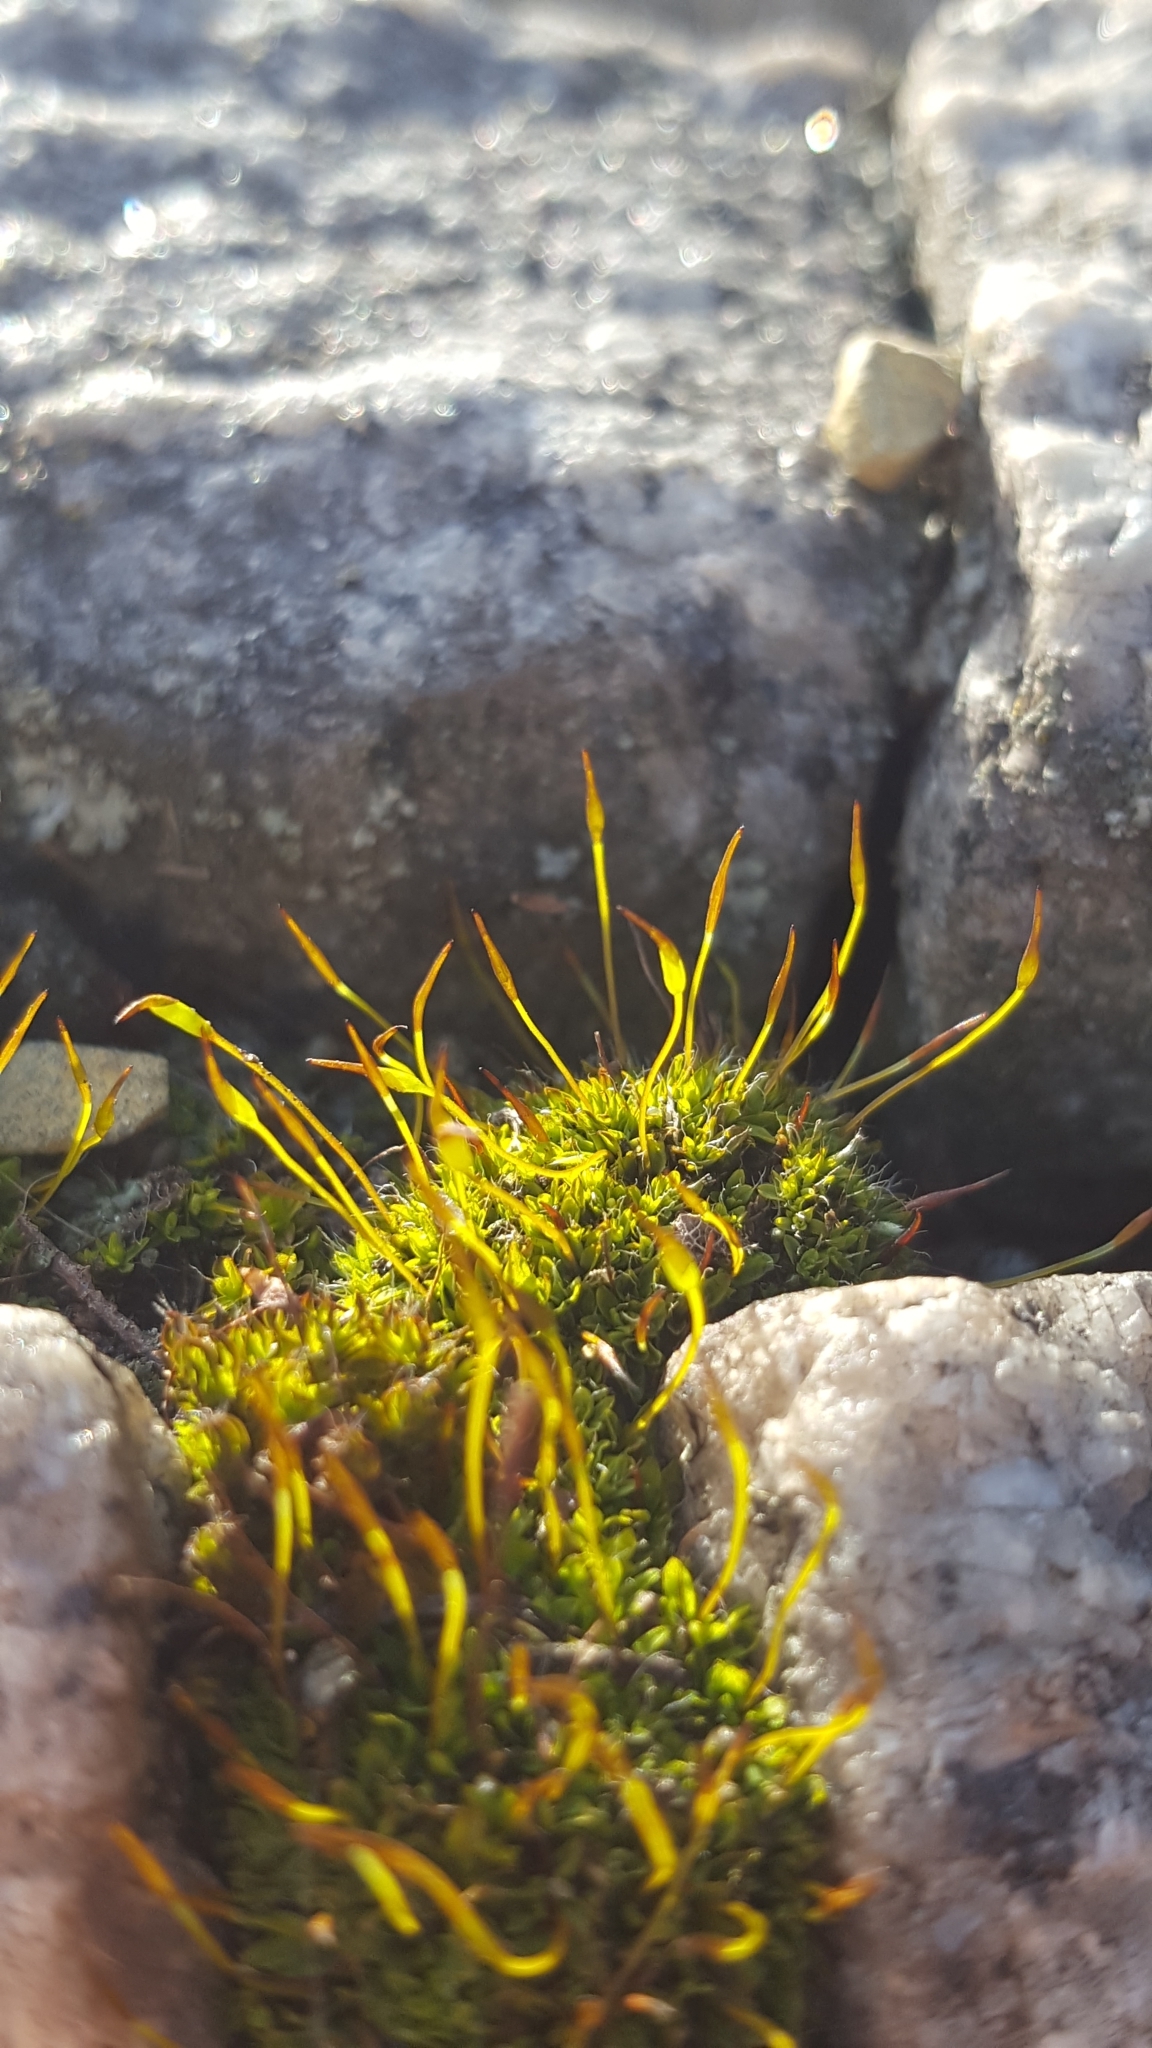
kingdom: Plantae
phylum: Bryophyta
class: Bryopsida
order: Pottiales
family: Pottiaceae
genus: Tortula
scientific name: Tortula muralis
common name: Wall screw-moss
